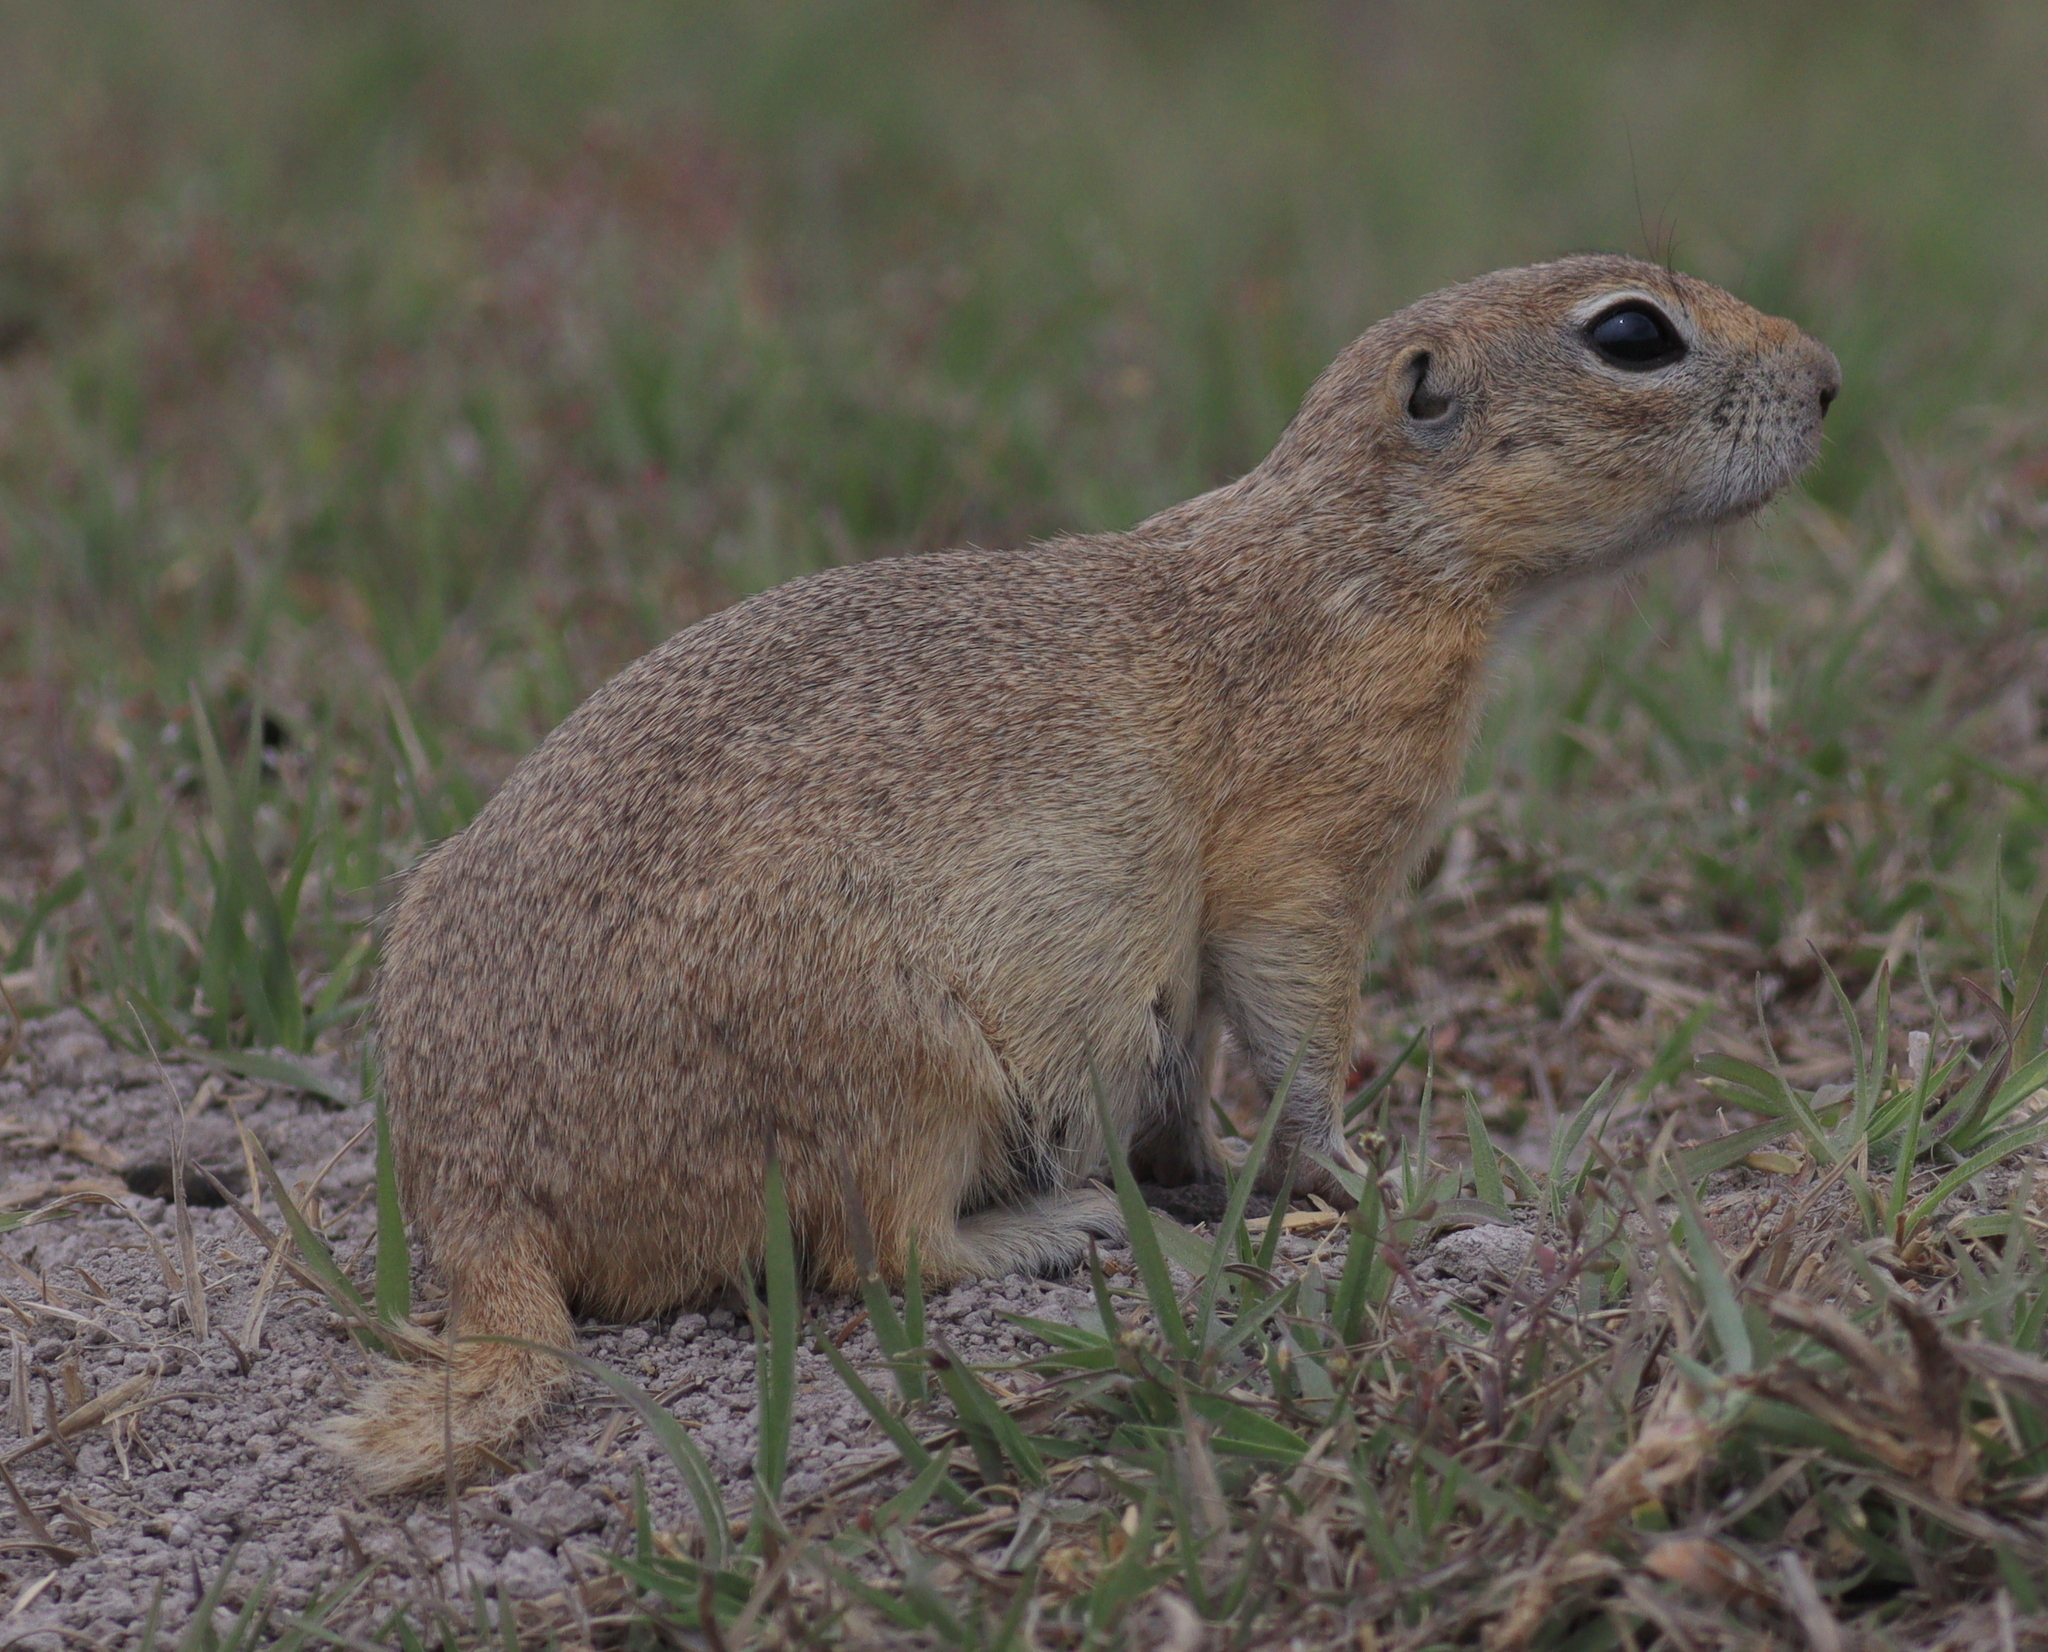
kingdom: Animalia
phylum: Chordata
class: Mammalia
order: Rodentia
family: Sciuridae
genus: Spermophilus
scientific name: Spermophilus xanthoprymnus
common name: Asia minor ground squirrel
